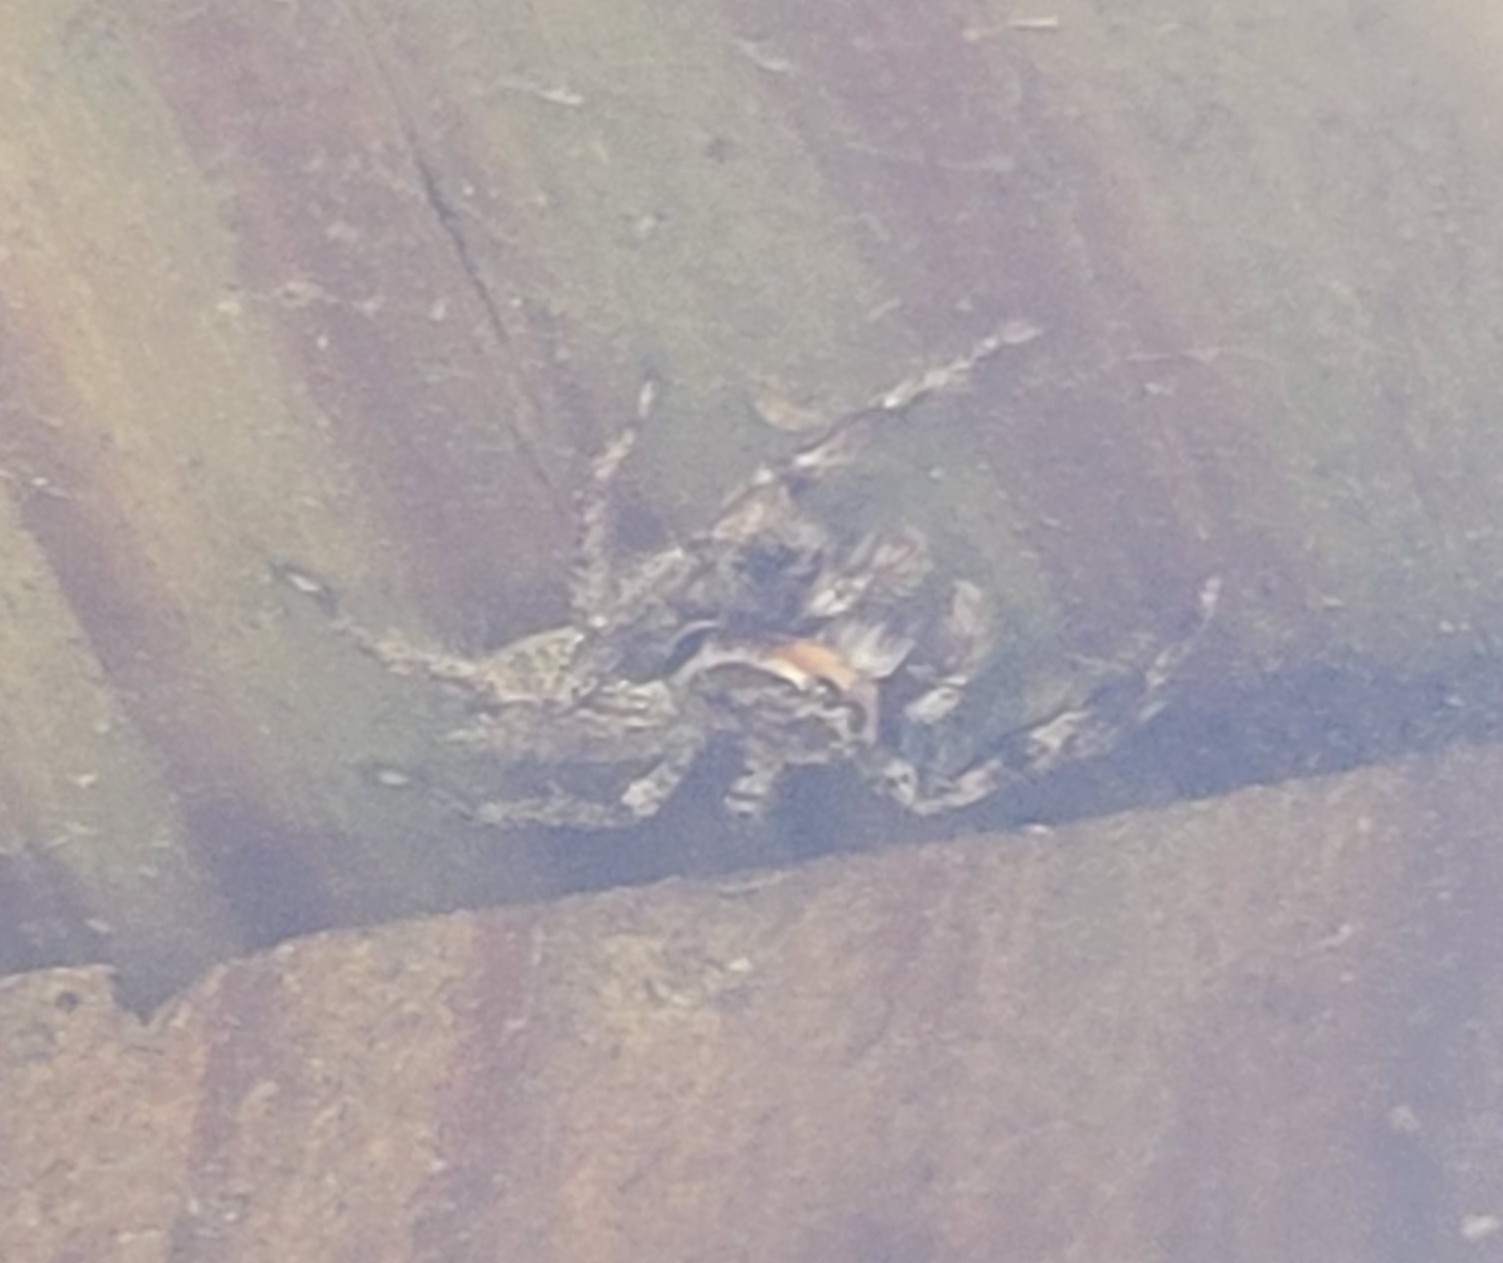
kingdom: Animalia
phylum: Arthropoda
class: Arachnida
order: Araneae
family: Salticidae
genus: Platycryptus
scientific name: Platycryptus undatus
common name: Tan jumping spider
